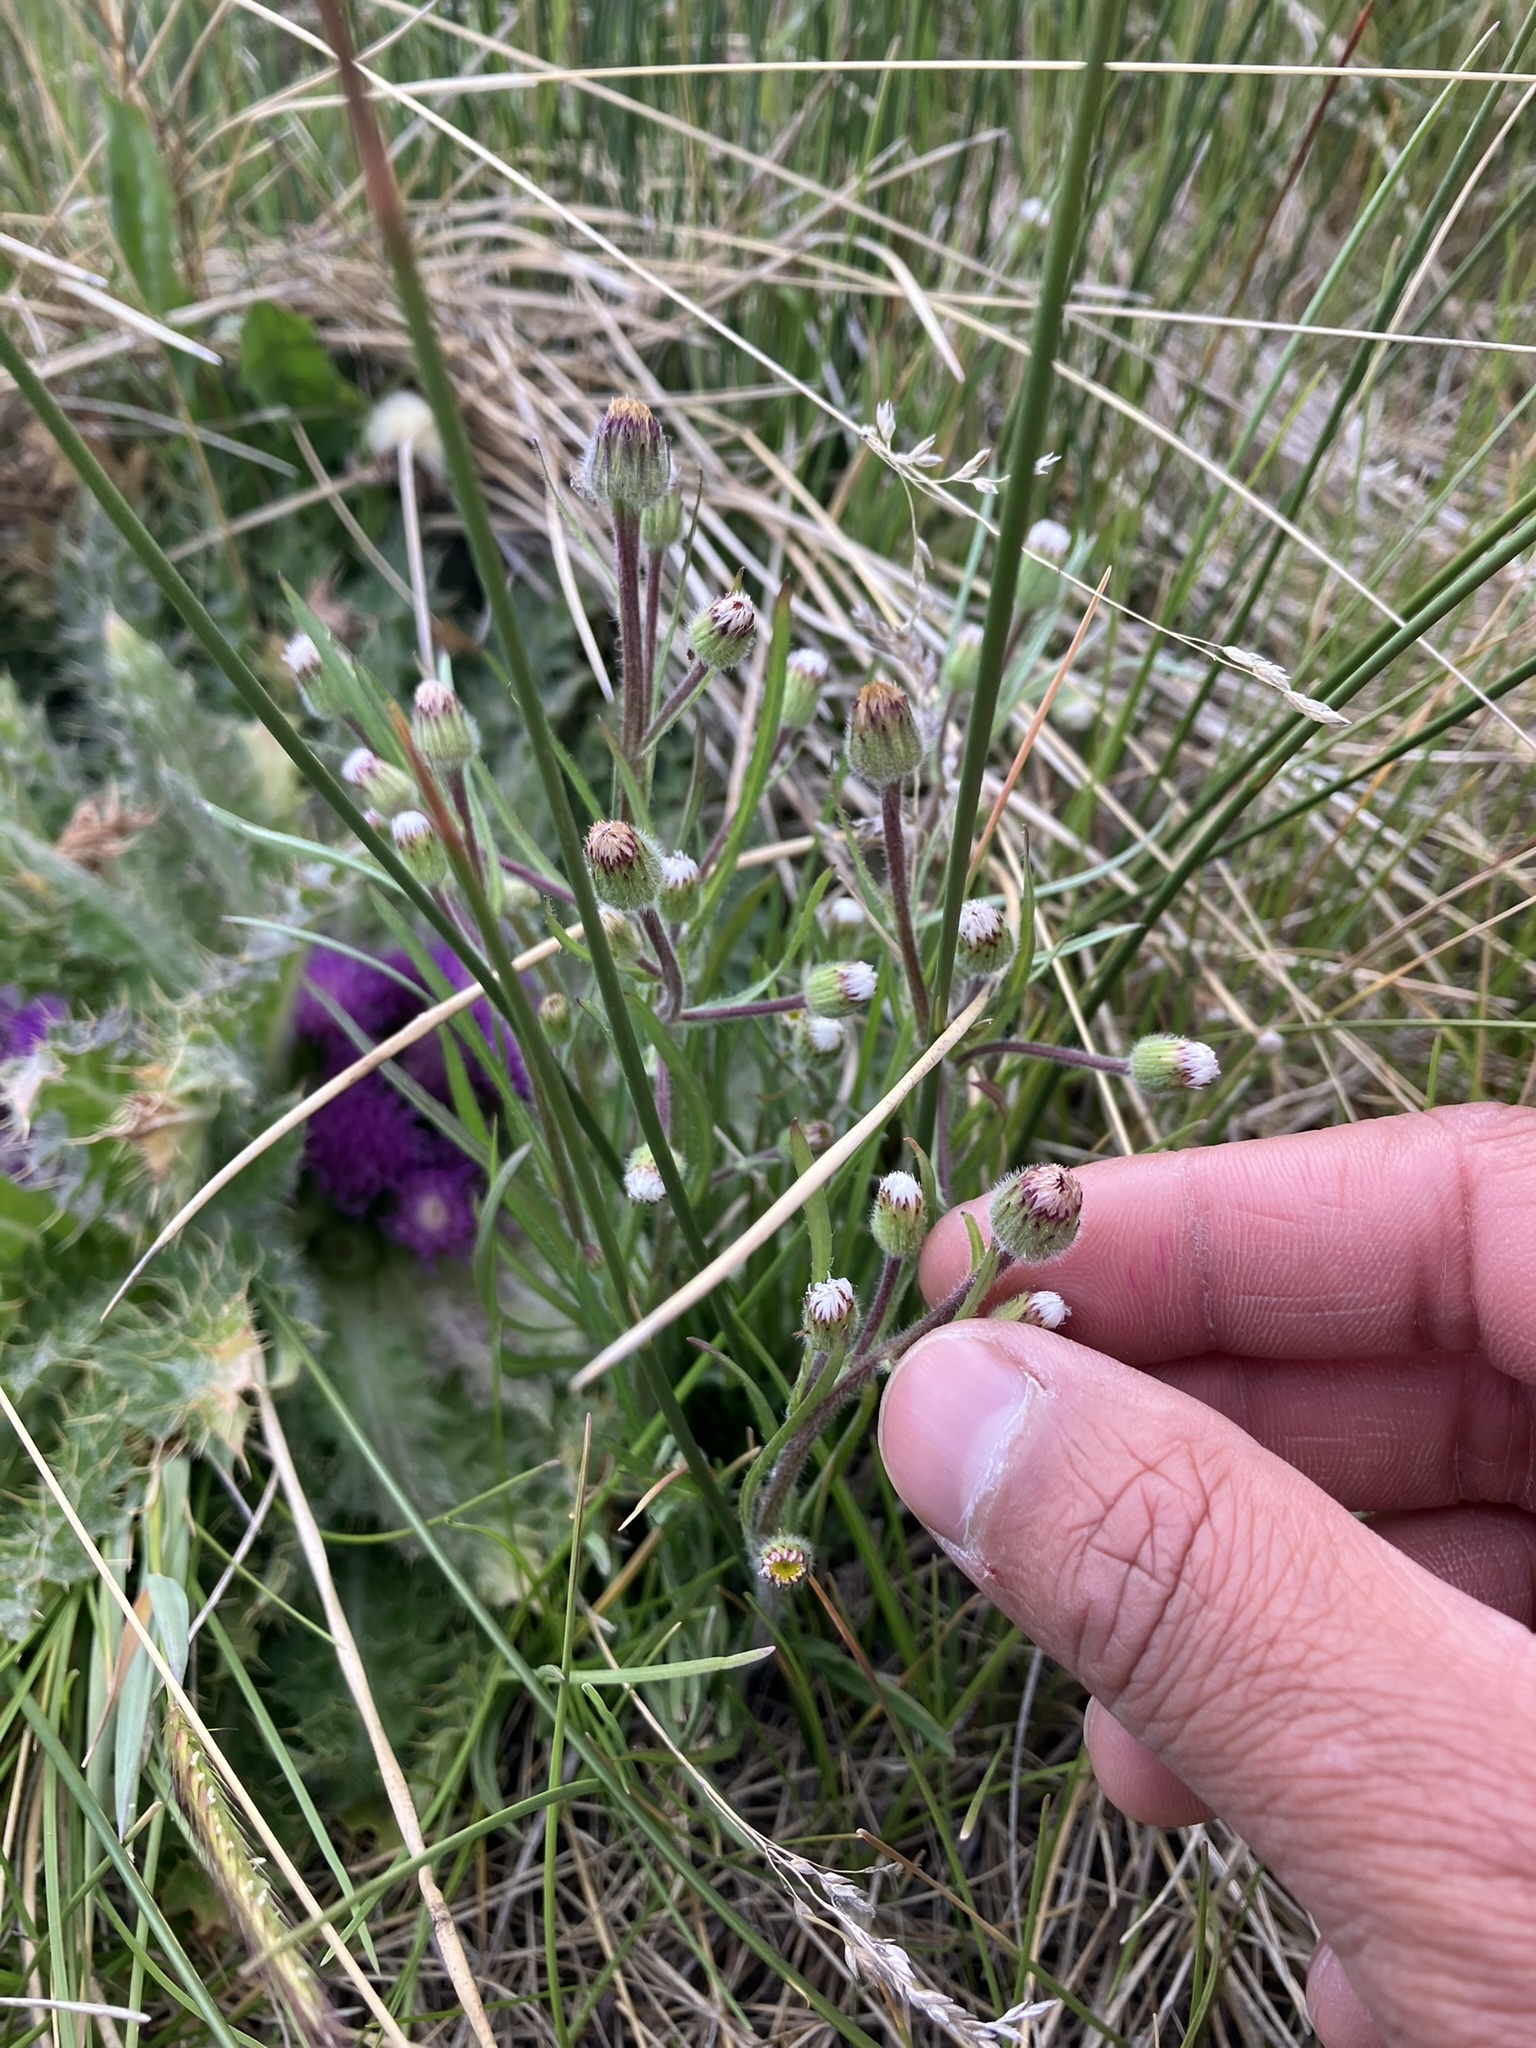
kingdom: Plantae
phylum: Tracheophyta
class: Magnoliopsida
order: Asterales
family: Asteraceae
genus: Erigeron
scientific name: Erigeron lonchophyllus
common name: Short-ray fleabane
